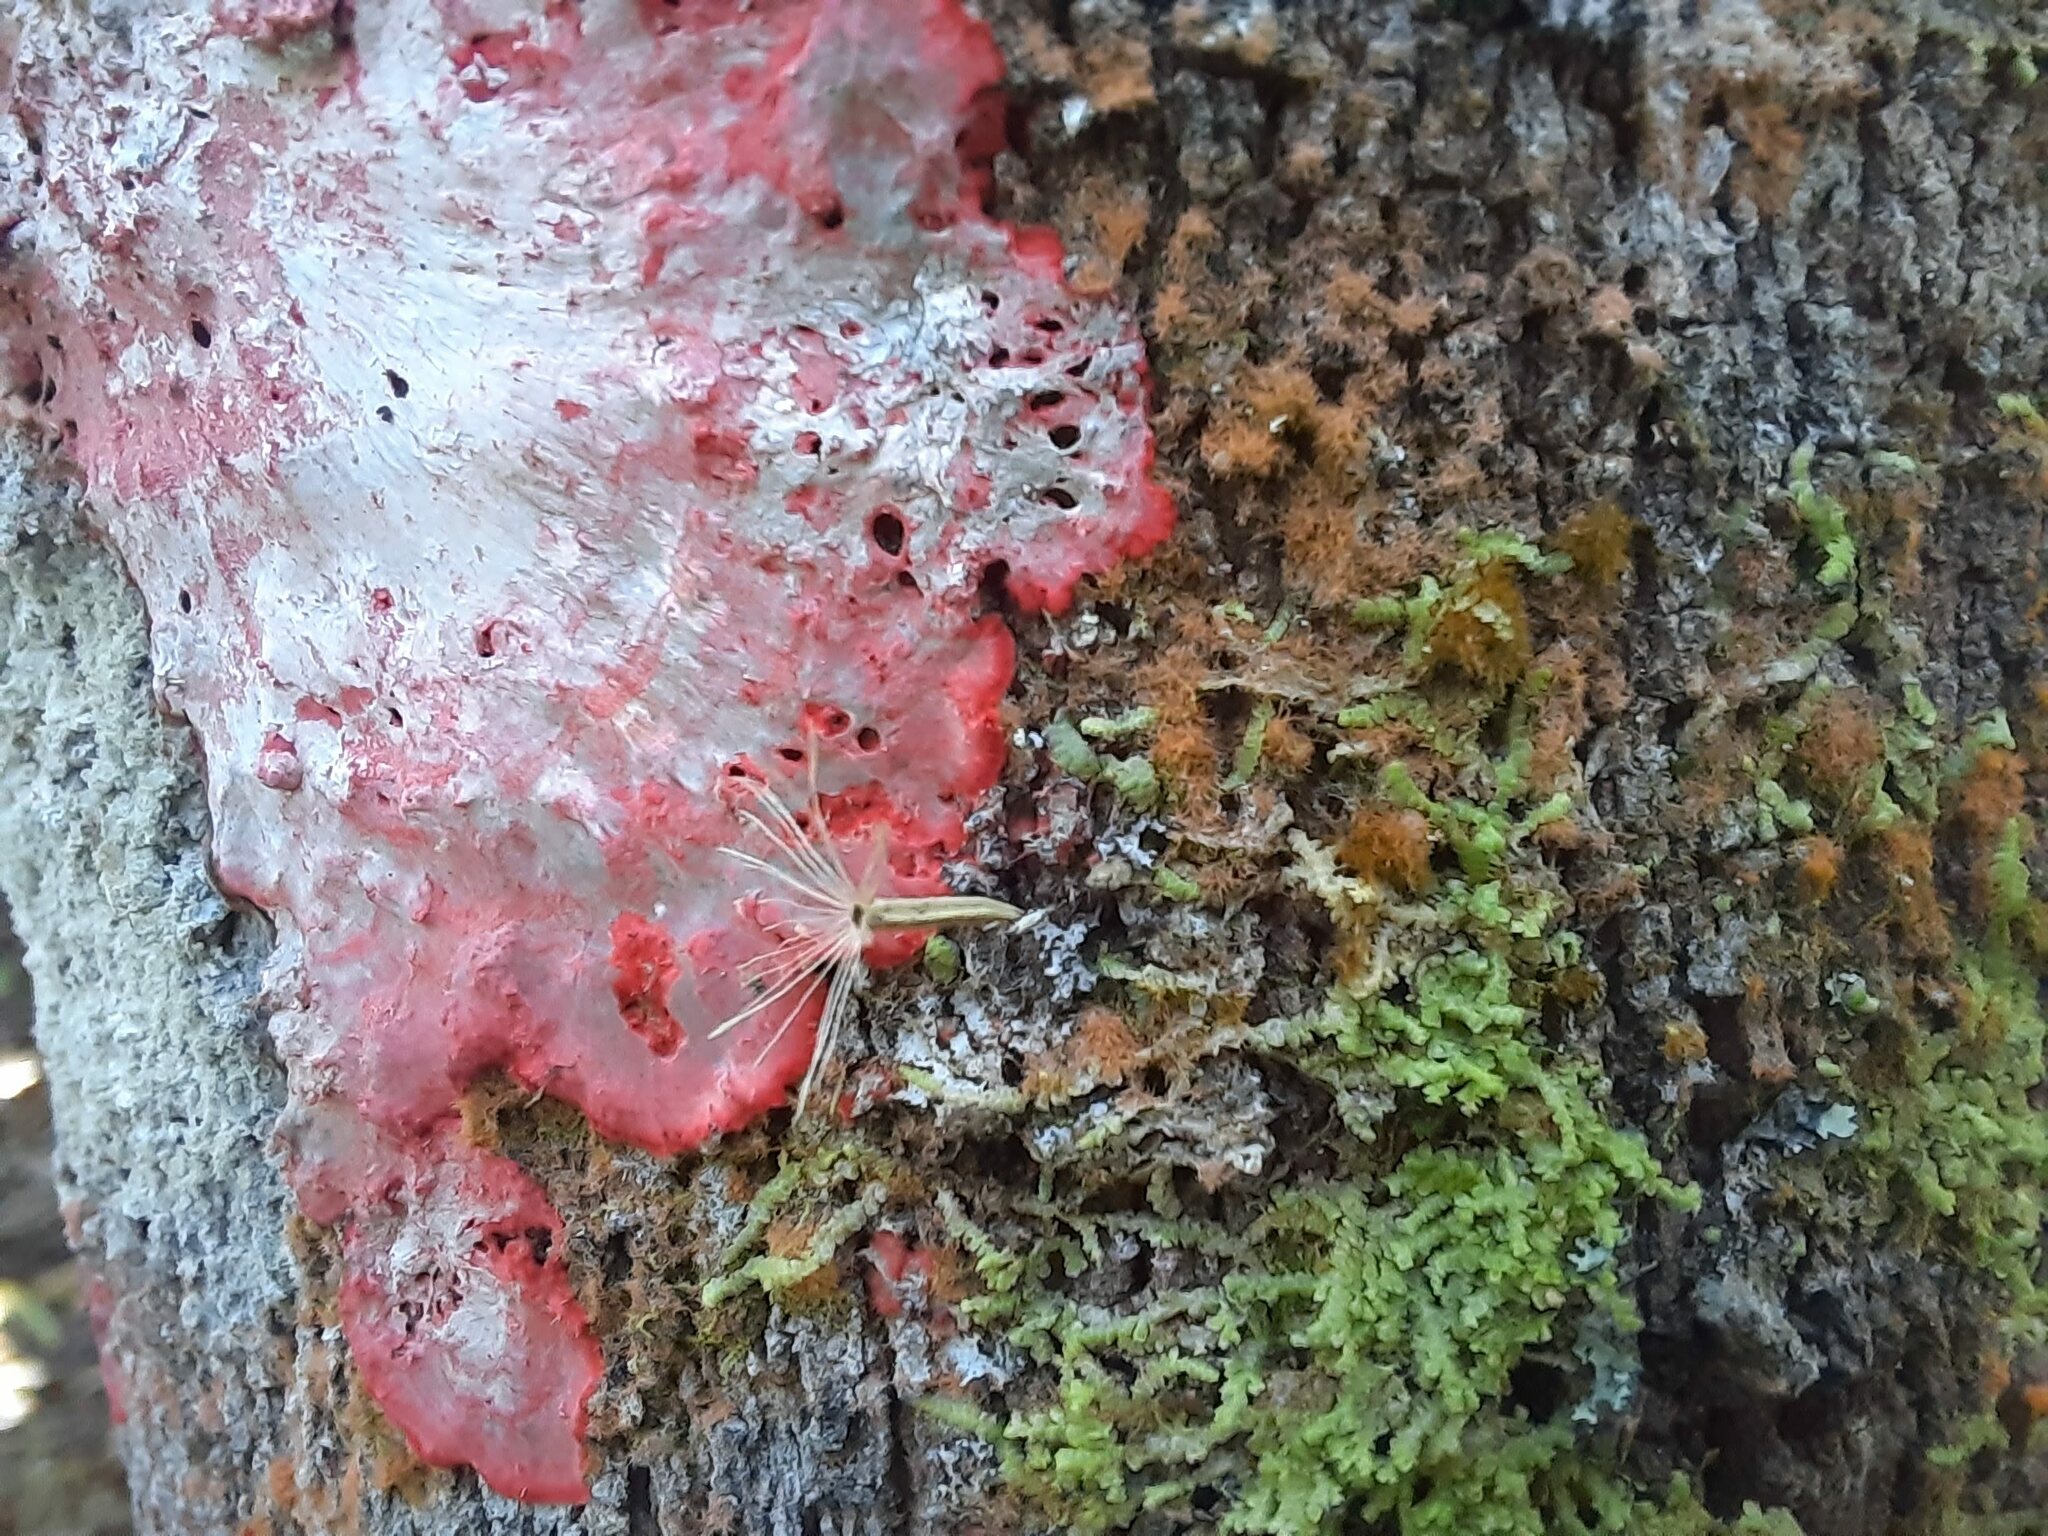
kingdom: Fungi
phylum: Ascomycota
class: Arthoniomycetes
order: Arthoniales
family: Arthoniaceae
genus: Herpothallon
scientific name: Herpothallon rubrocinctum
